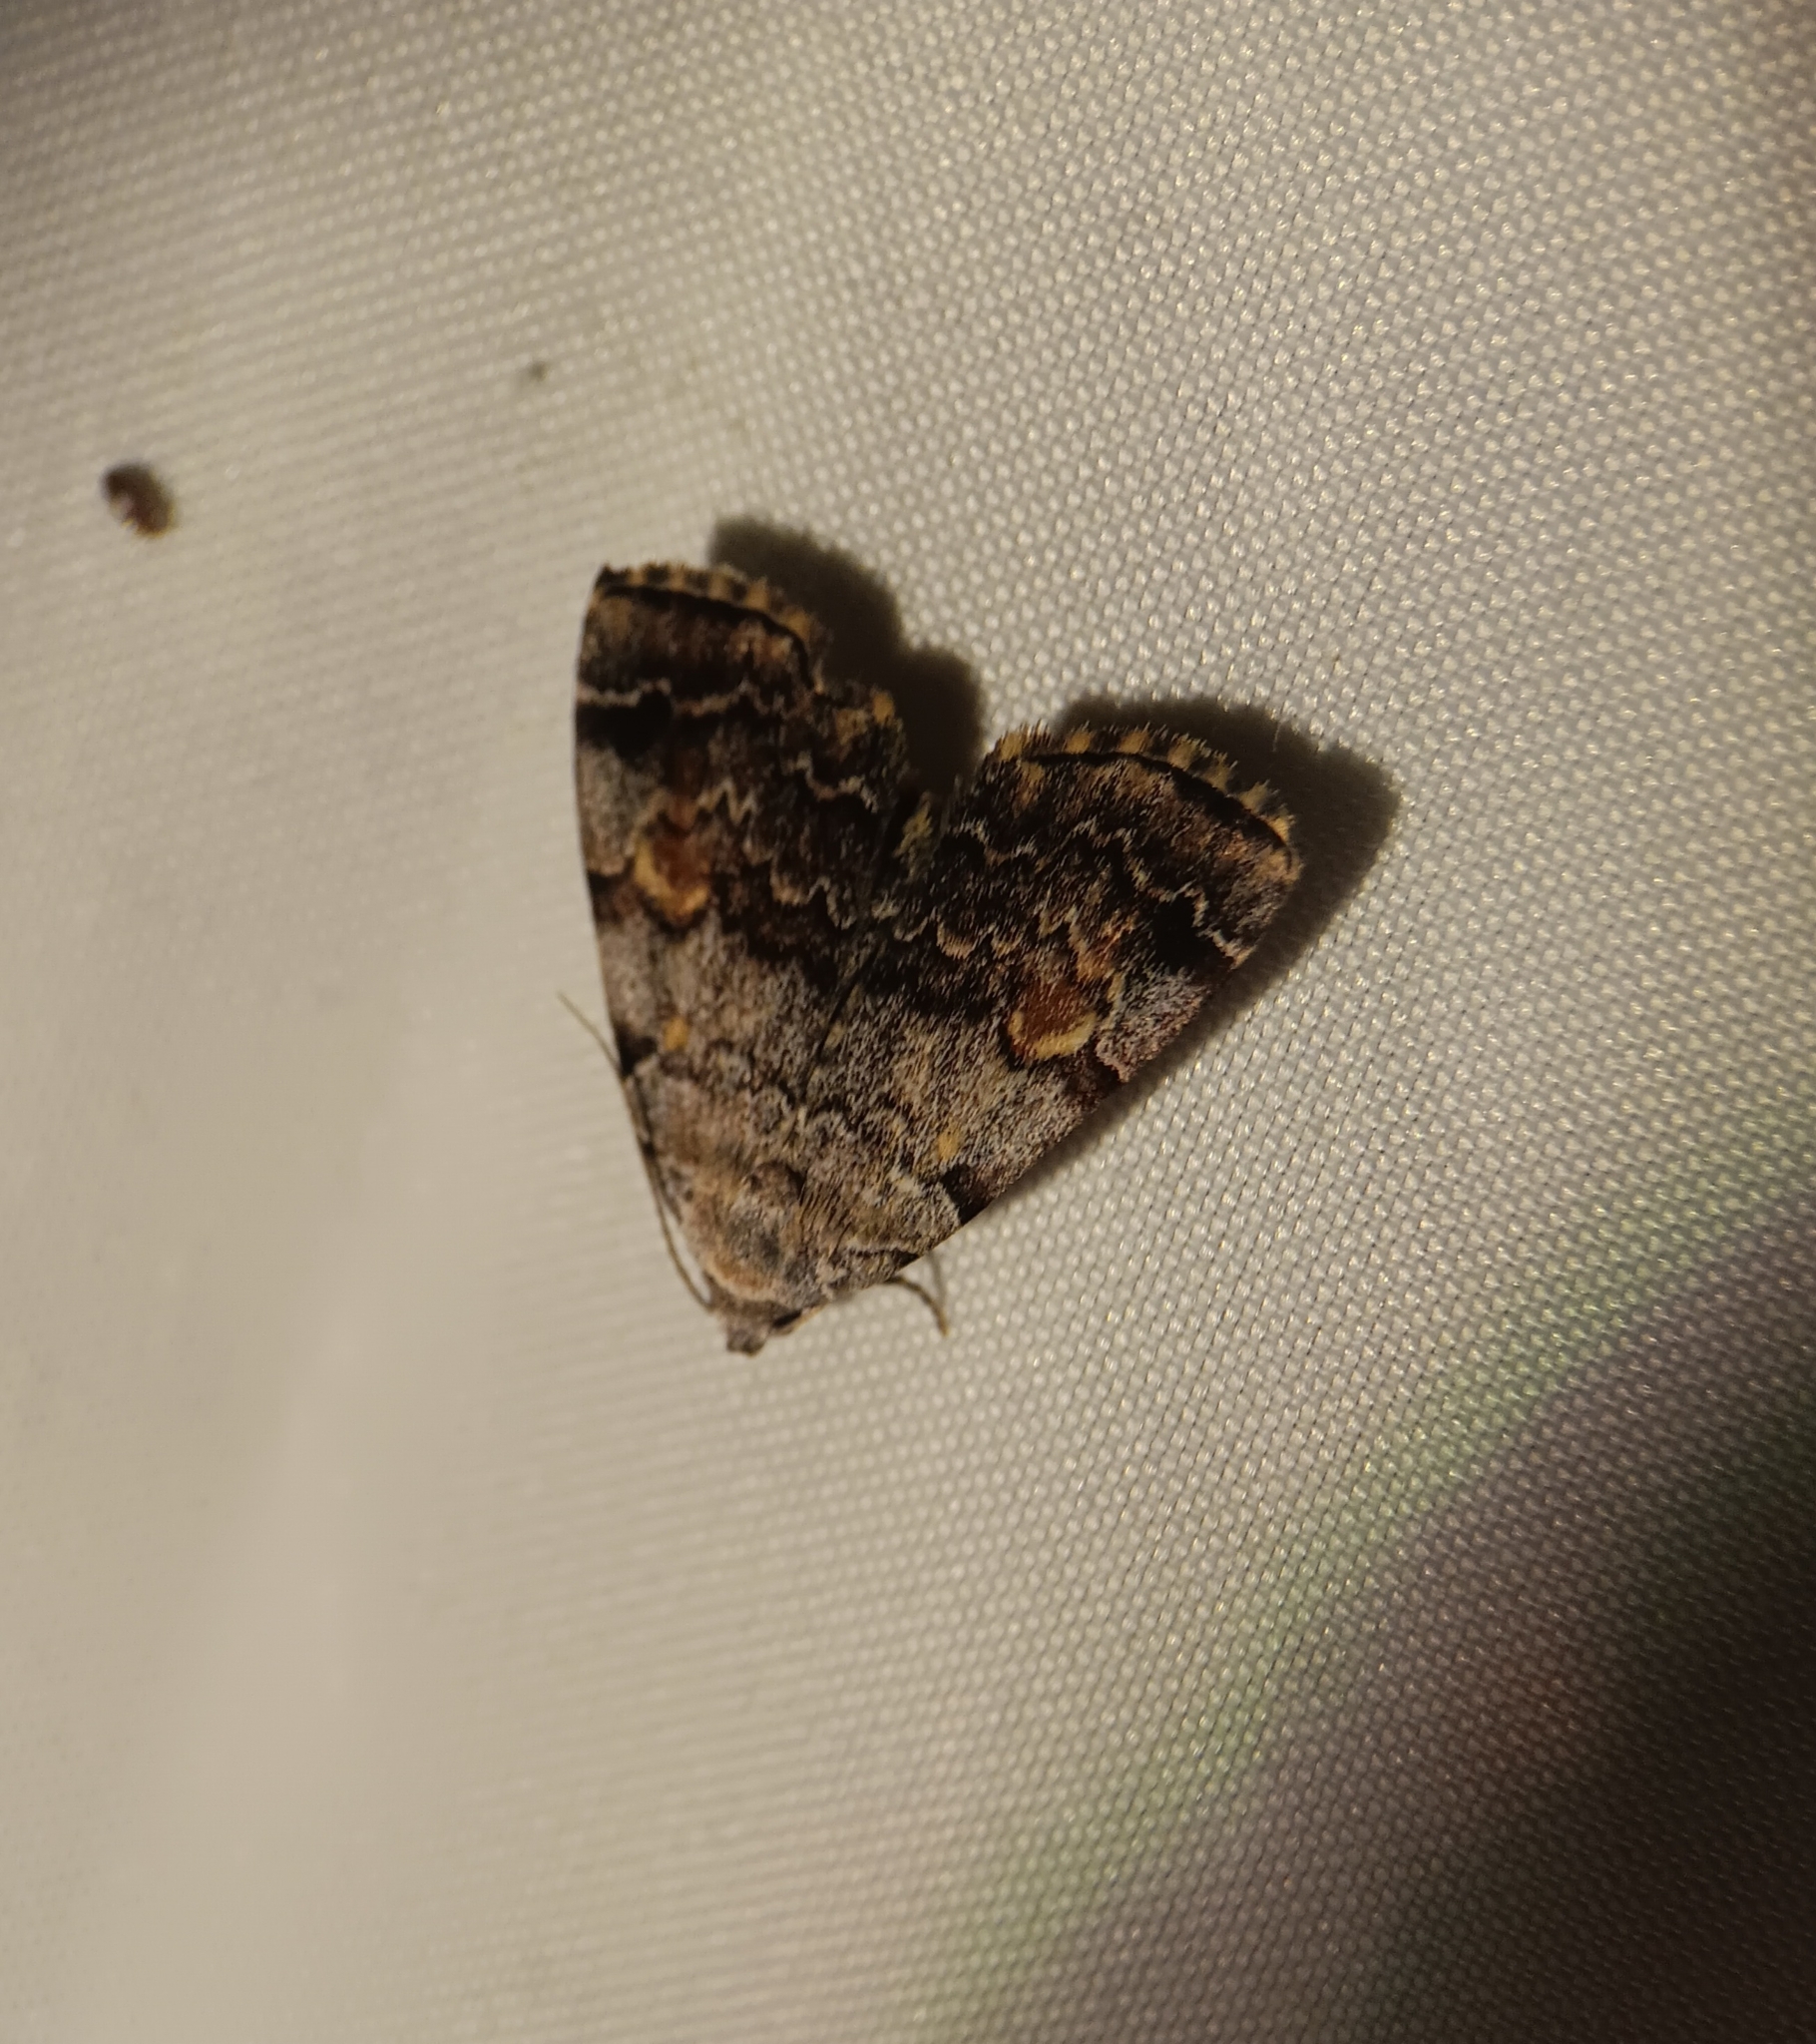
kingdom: Animalia
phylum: Arthropoda
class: Insecta
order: Lepidoptera
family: Erebidae
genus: Idia
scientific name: Idia americalis
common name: American idia moth
